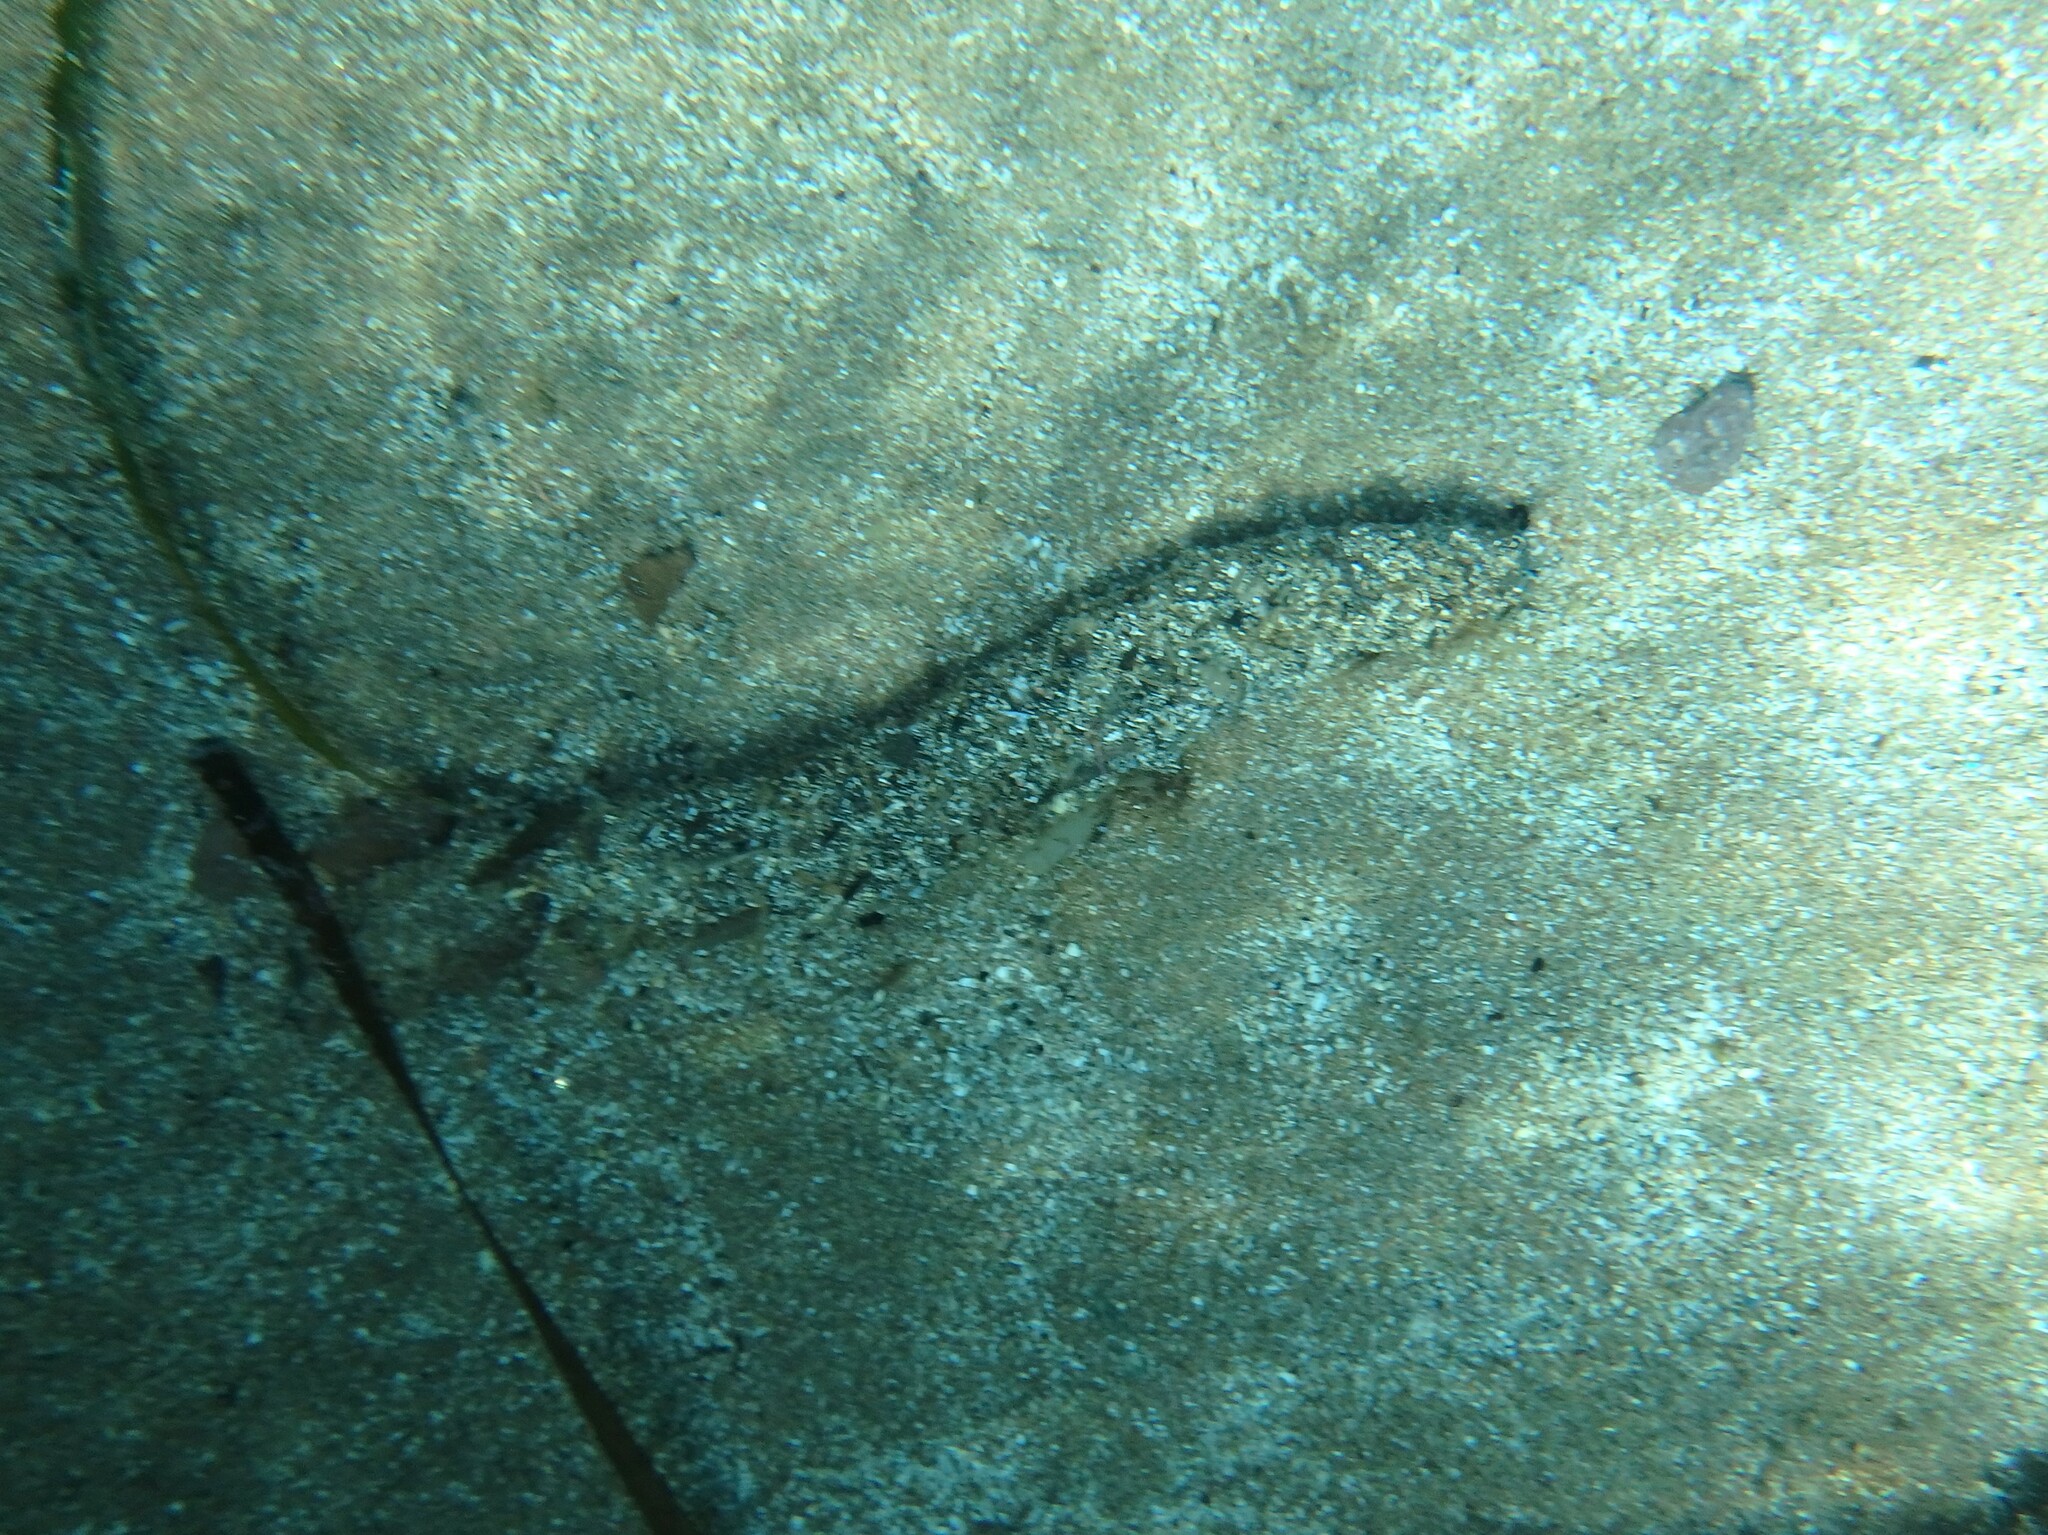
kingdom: Animalia
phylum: Echinodermata
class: Holothuroidea
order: Holothuriida
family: Holothuriidae
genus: Holothuria
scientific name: Holothuria poli
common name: White spot cucumber
